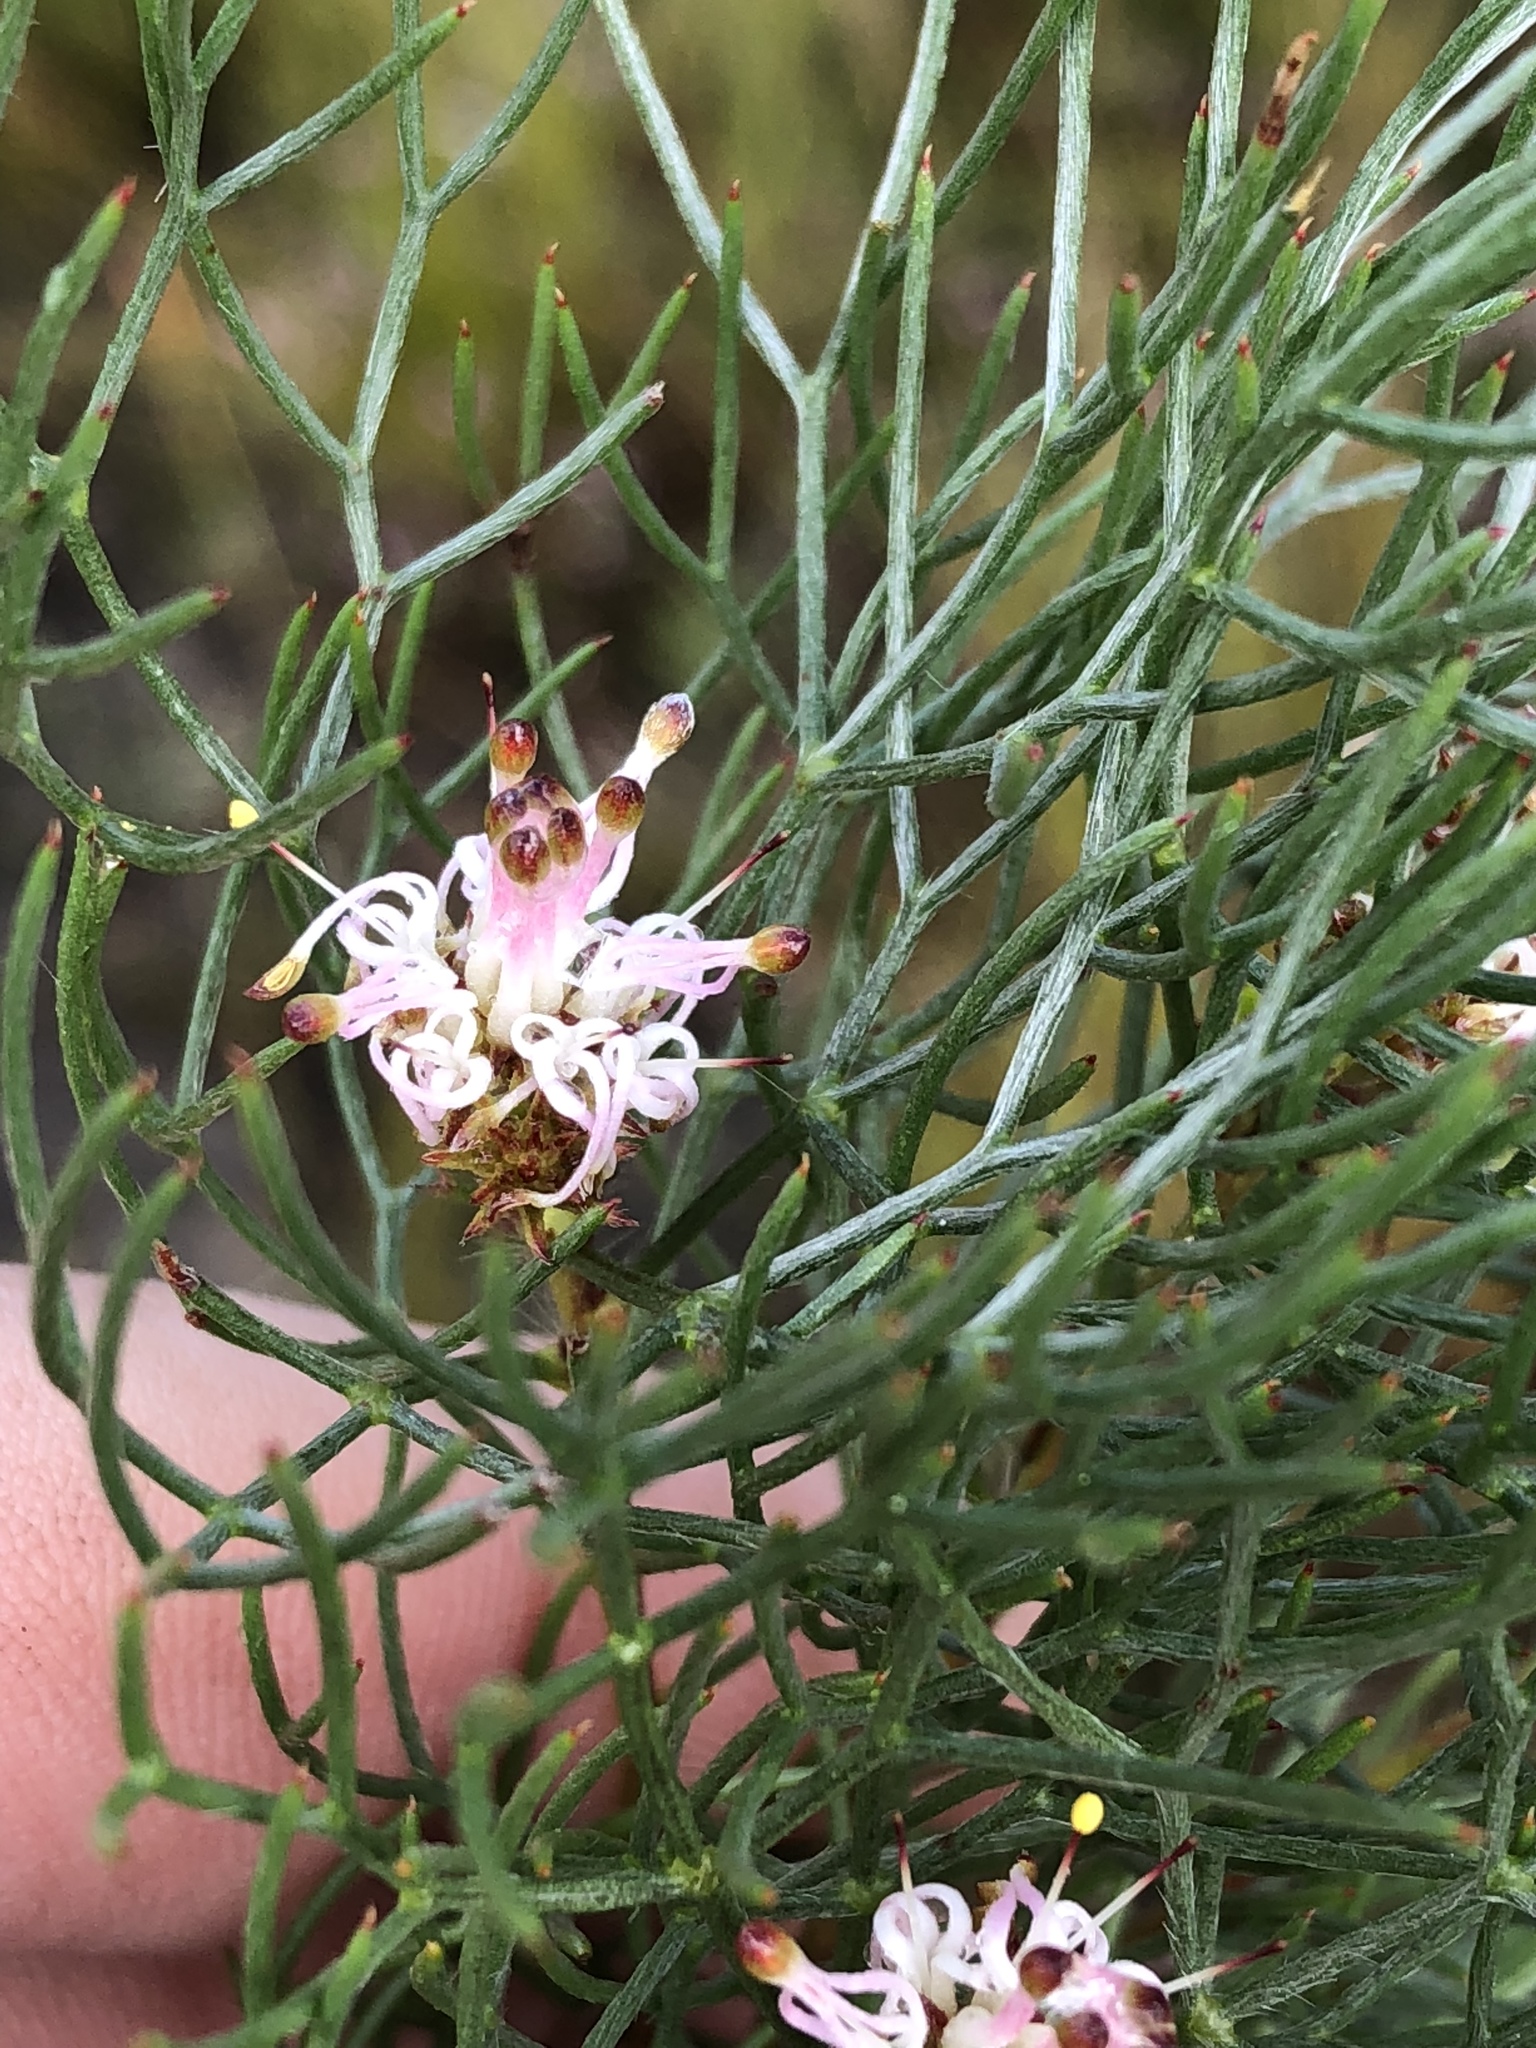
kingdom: Plantae
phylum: Tracheophyta
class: Magnoliopsida
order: Proteales
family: Proteaceae
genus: Serruria
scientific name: Serruria fasciflora
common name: Common pin spiderhead
